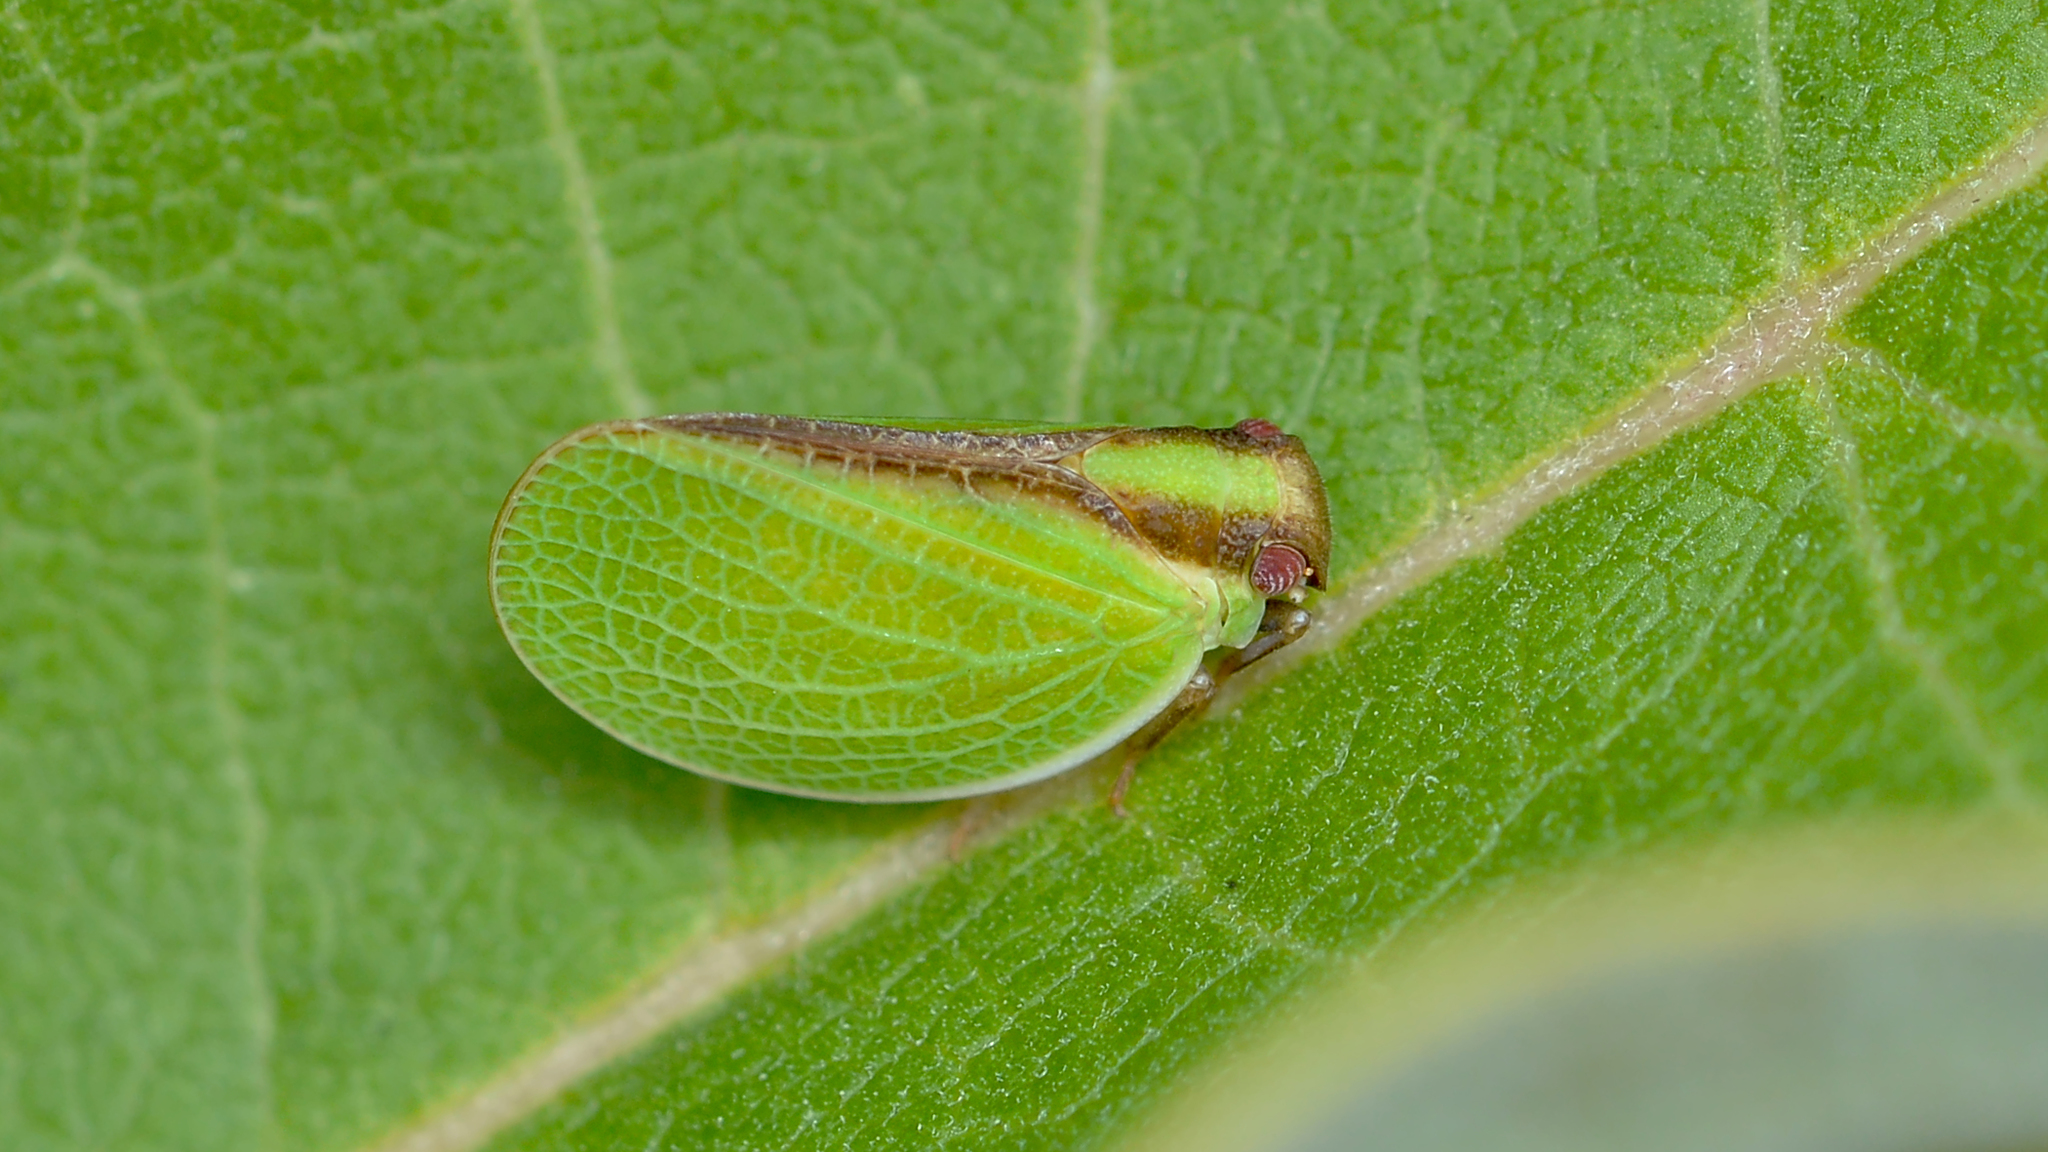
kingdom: Animalia
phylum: Arthropoda
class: Insecta
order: Hemiptera
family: Acanaloniidae
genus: Acanalonia
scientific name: Acanalonia bivittata
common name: Two-striped planthopper
